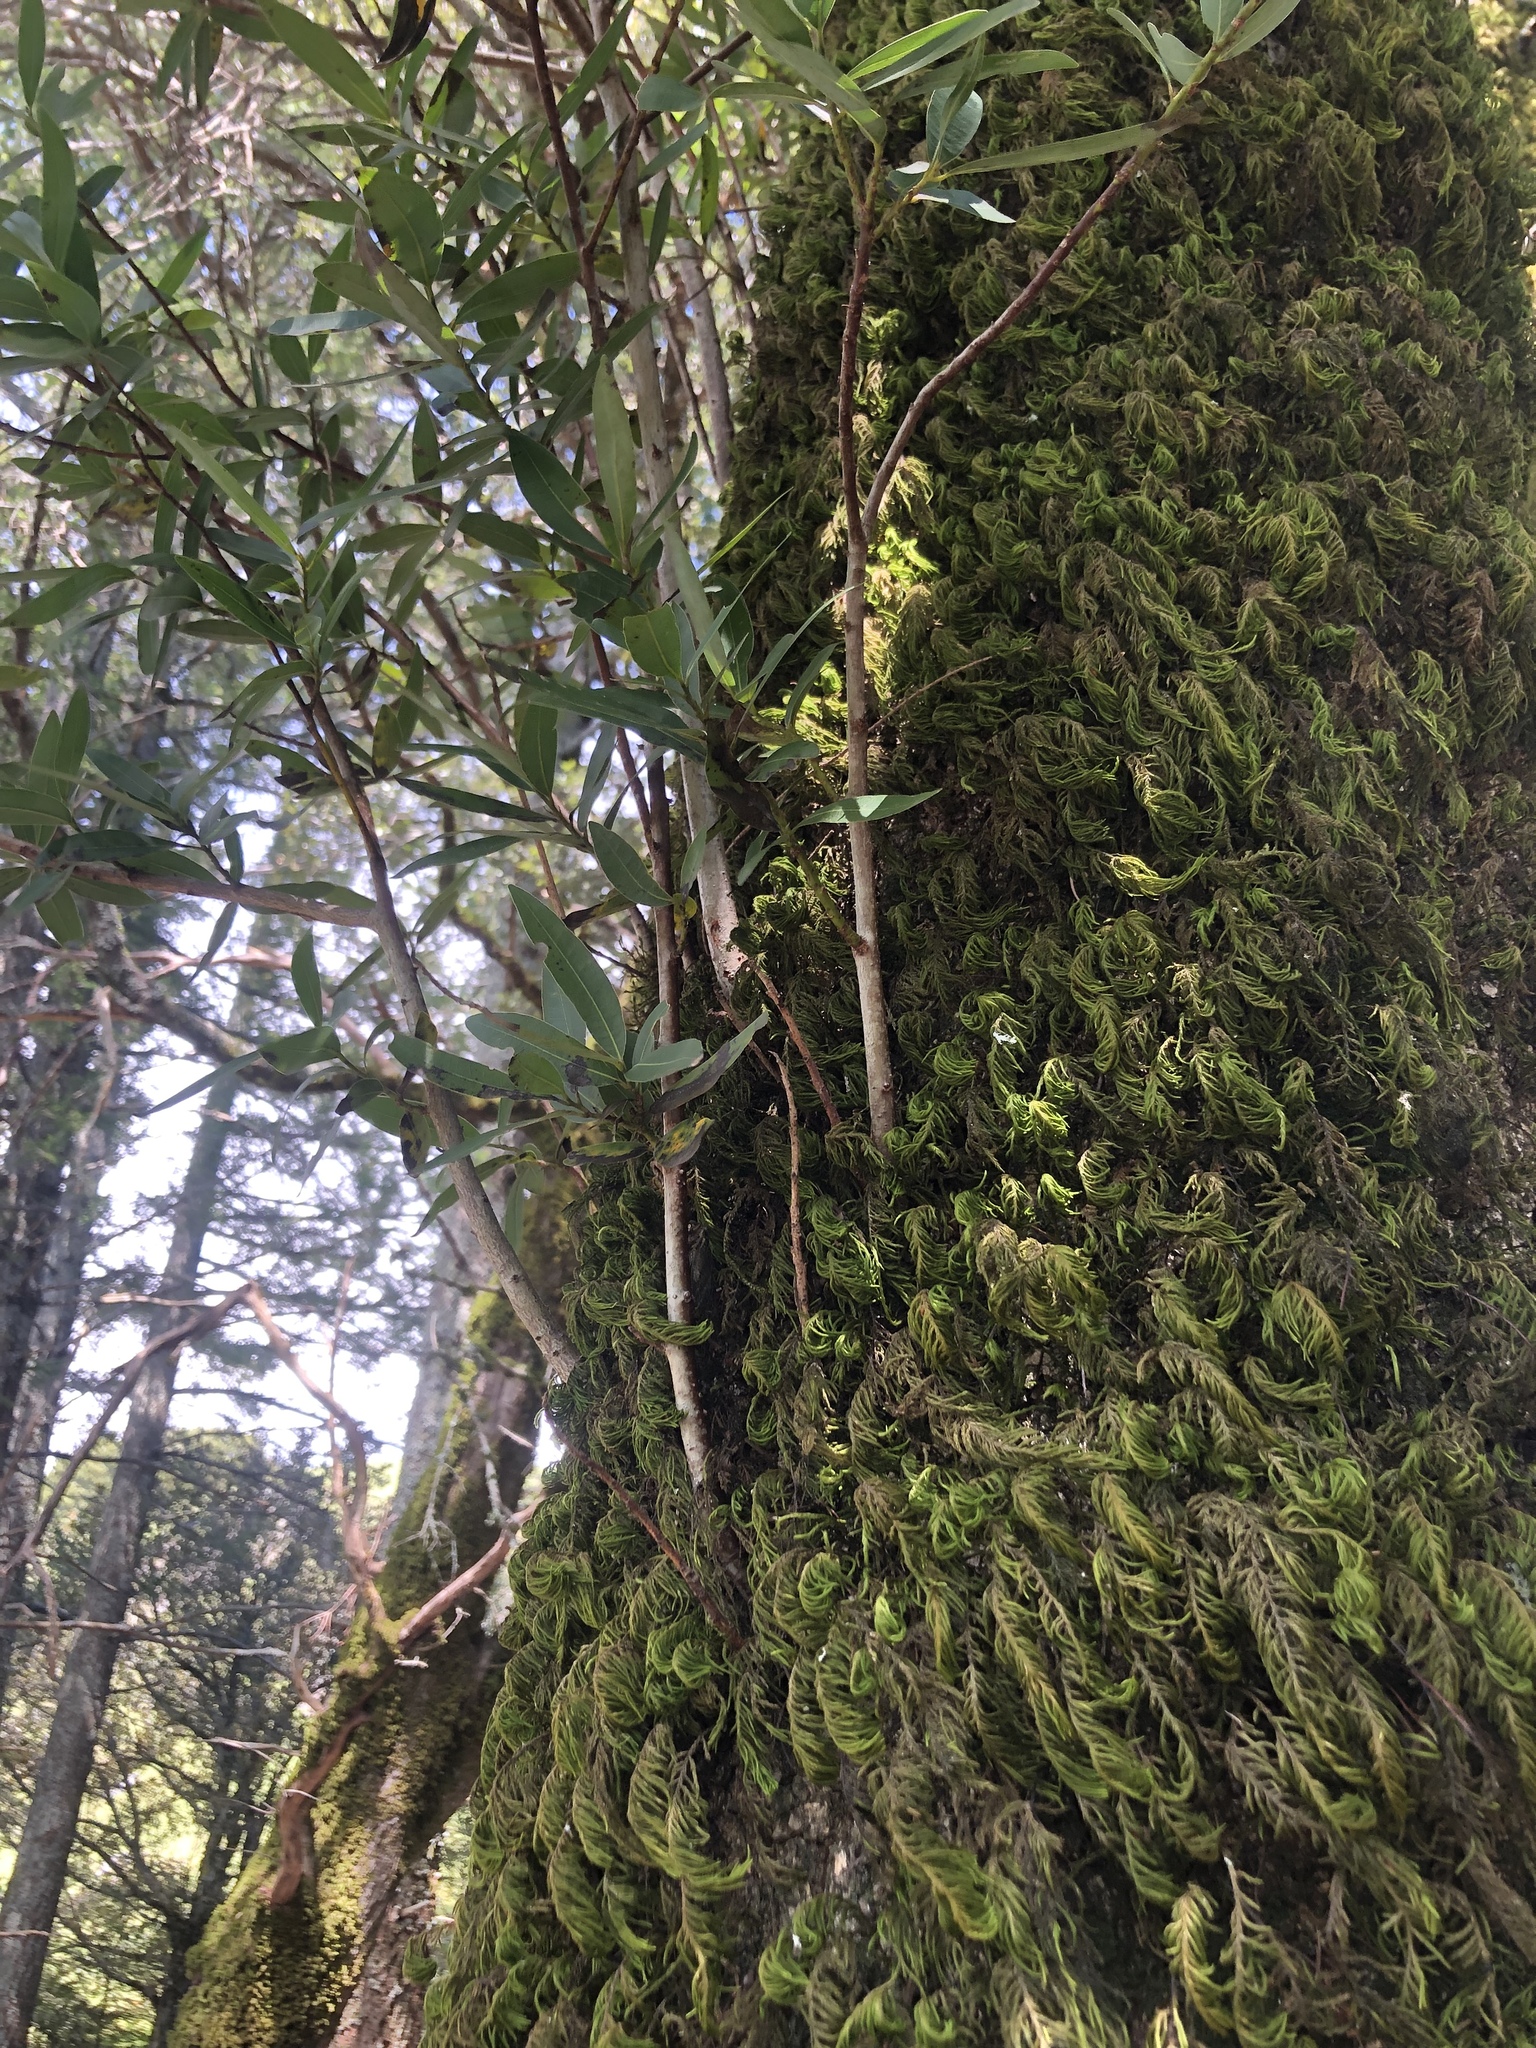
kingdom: Plantae
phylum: Bryophyta
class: Bryopsida
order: Hypnales
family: Cryphaeaceae
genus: Dendroalsia
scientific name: Dendroalsia abietina
